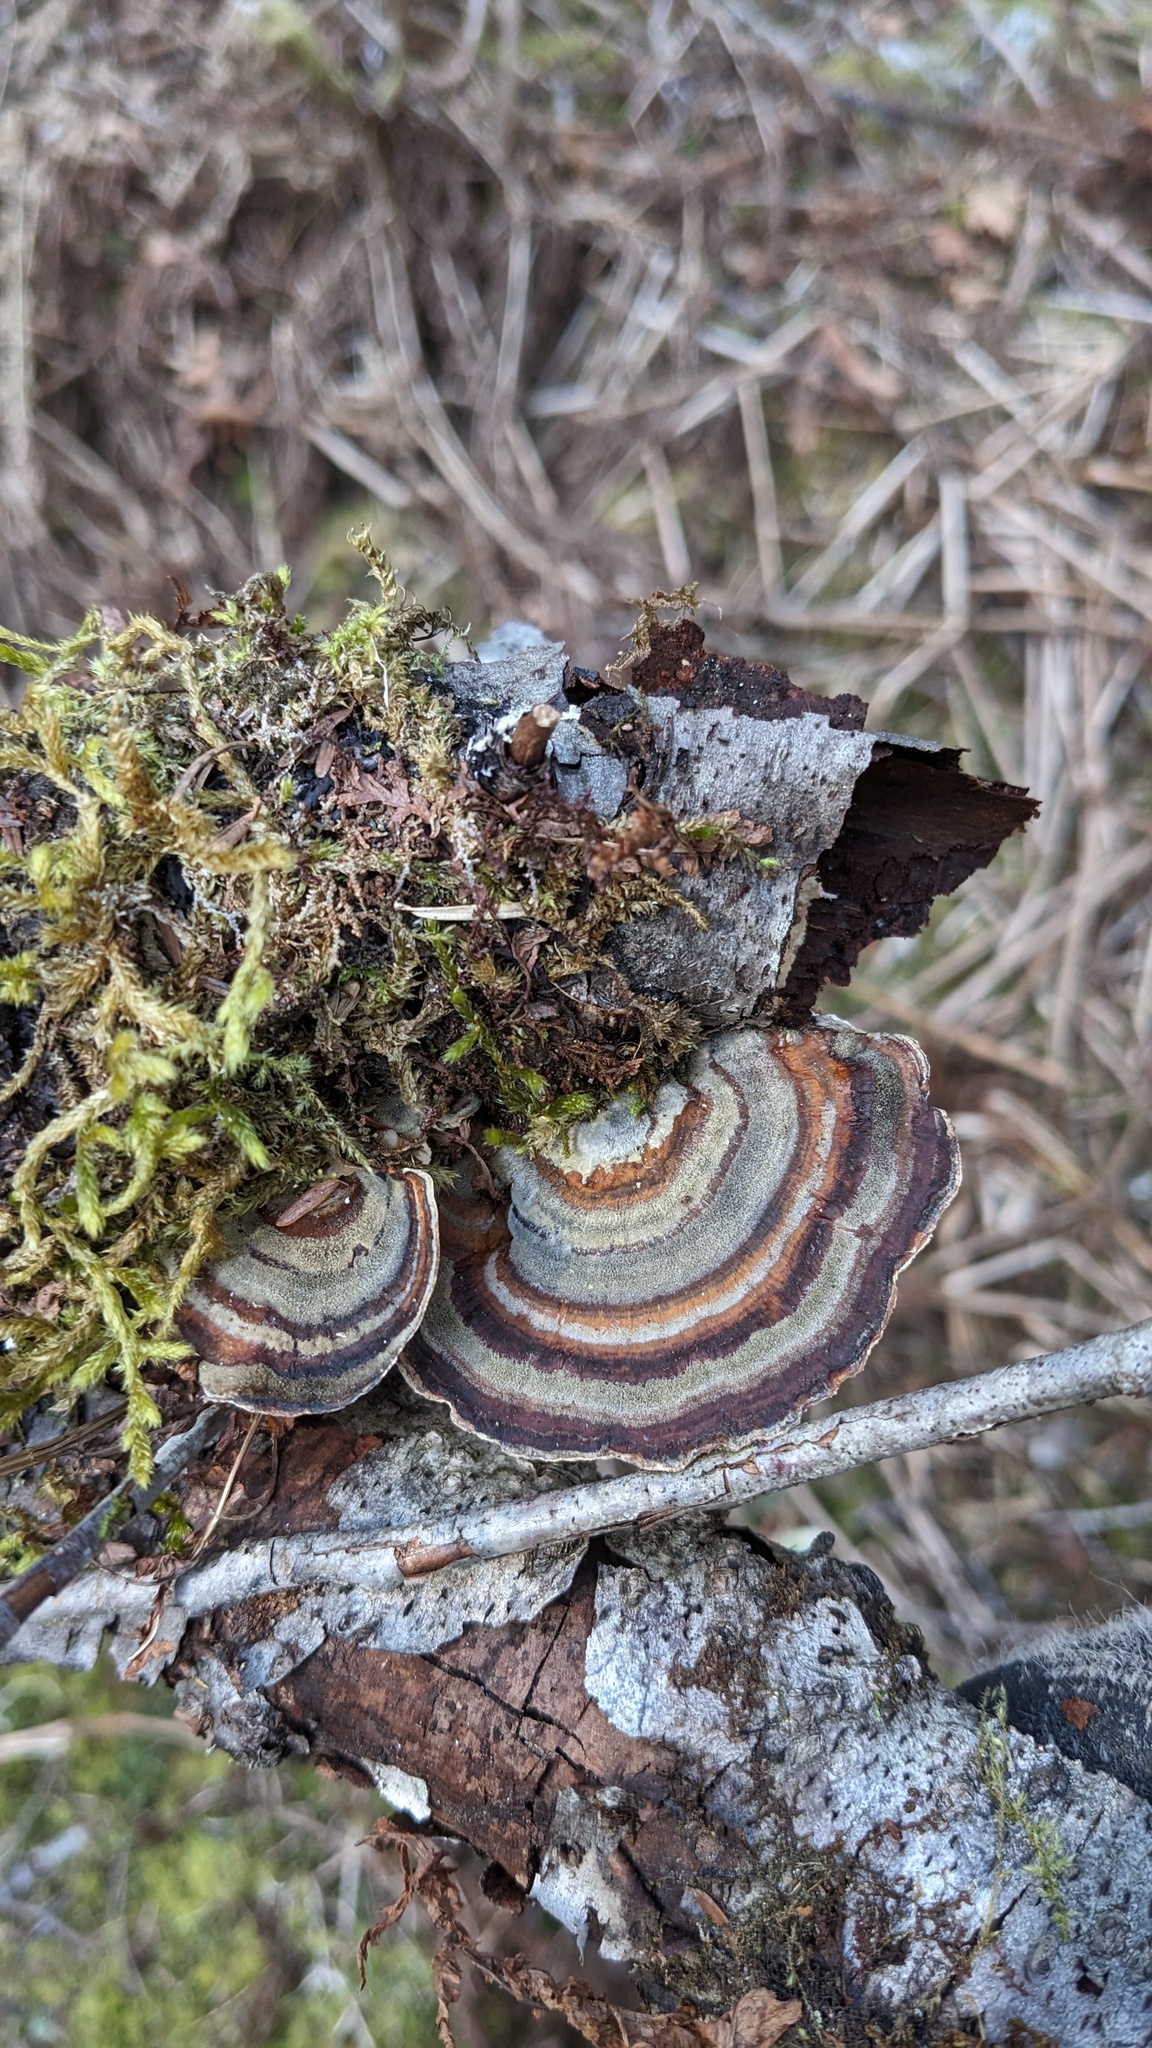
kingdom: Fungi
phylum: Basidiomycota
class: Agaricomycetes
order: Polyporales
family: Polyporaceae
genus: Trametes
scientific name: Trametes versicolor
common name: Turkeytail
